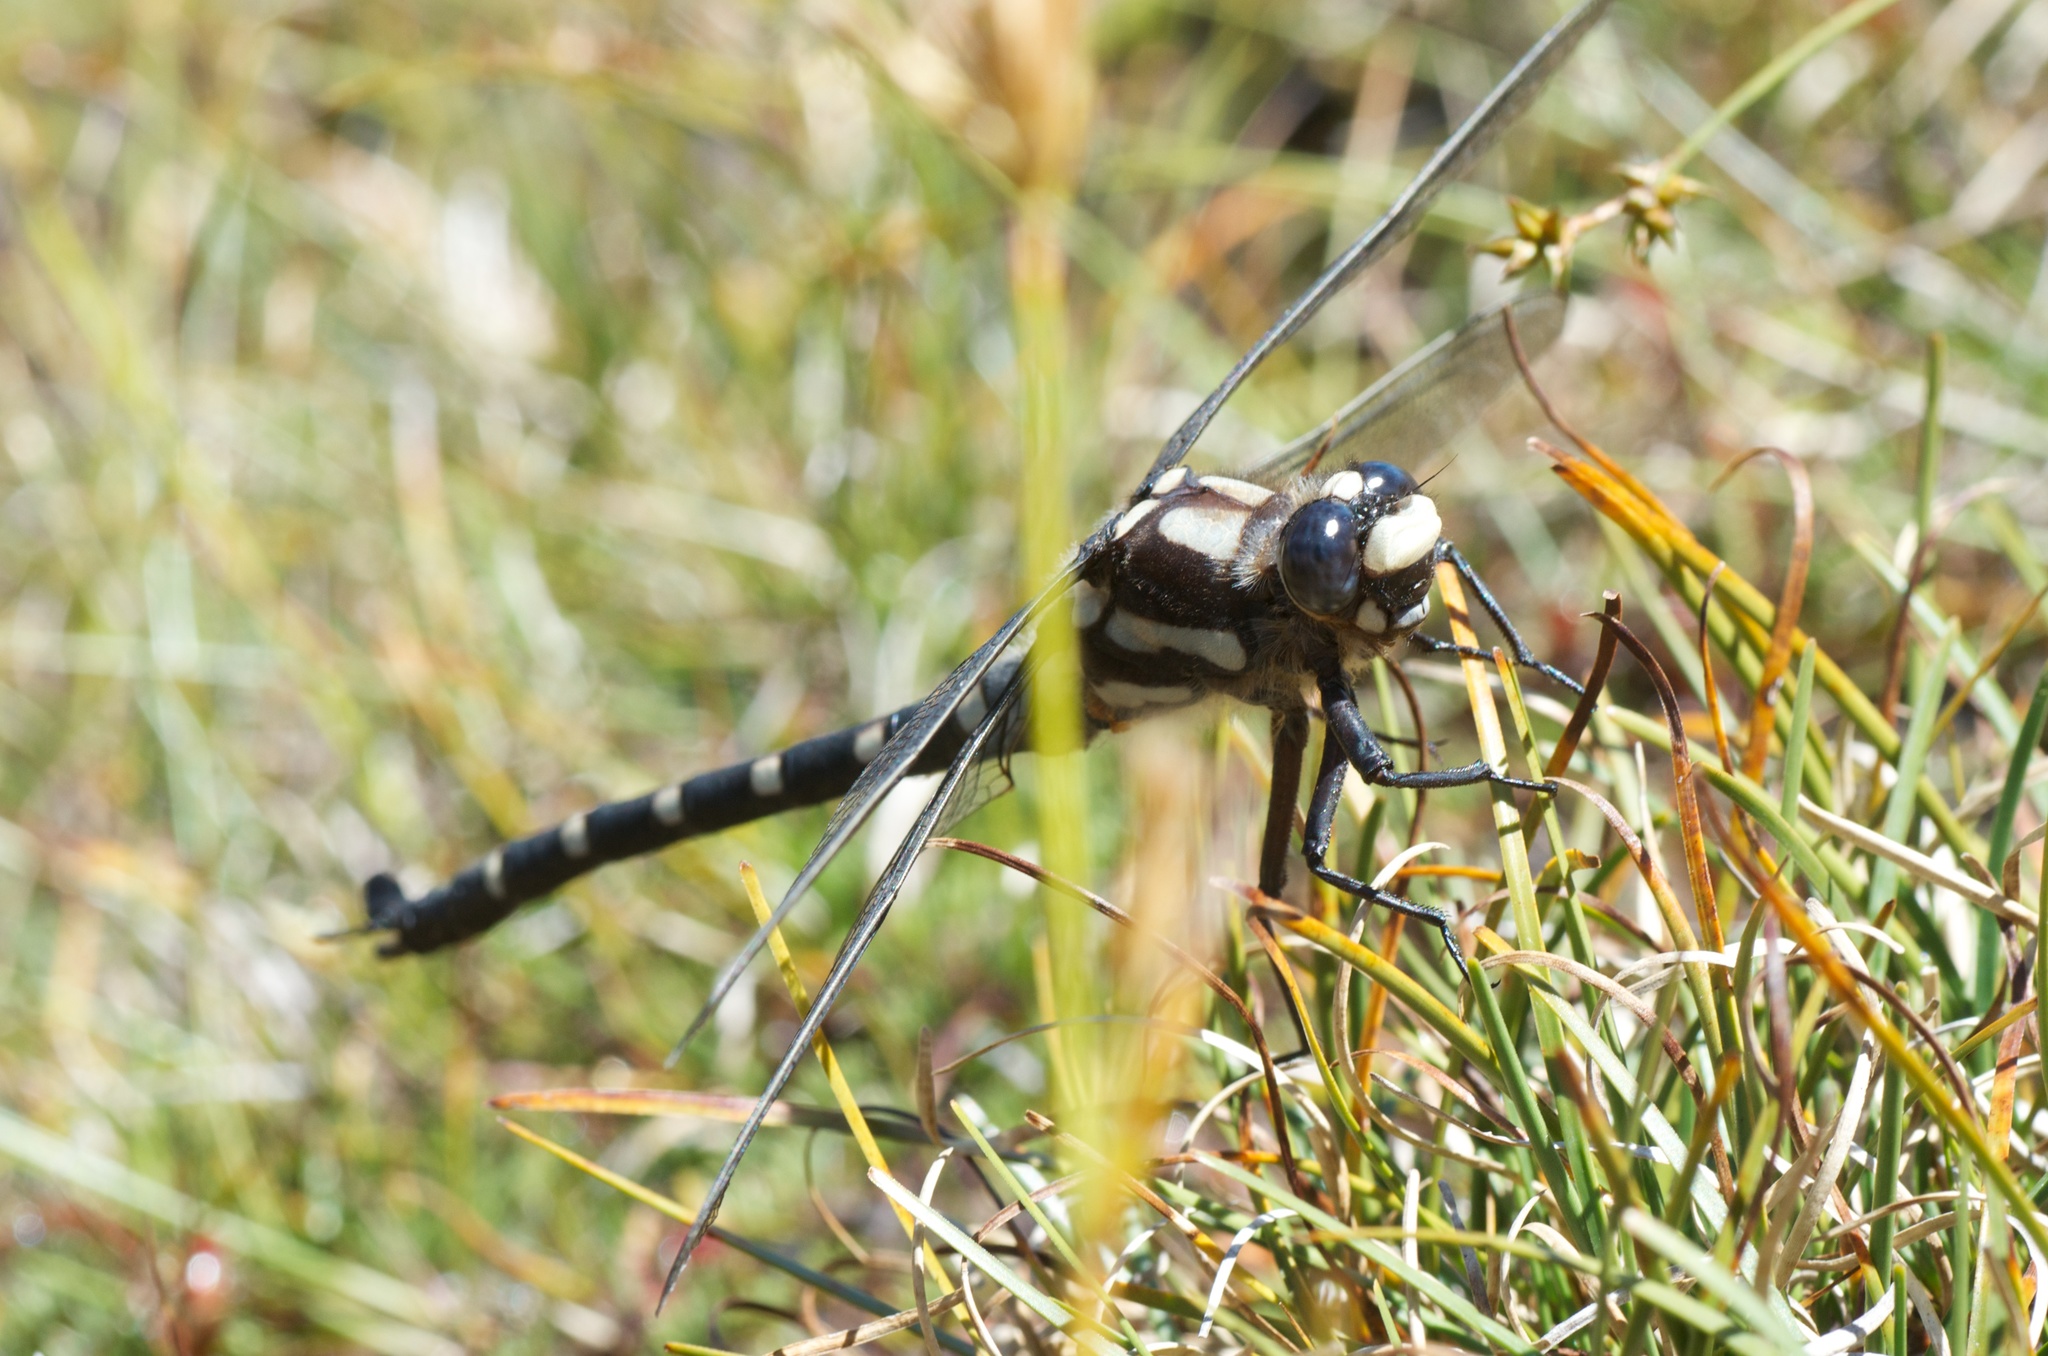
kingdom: Animalia
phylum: Arthropoda
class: Insecta
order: Odonata
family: Petaluridae
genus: Uropetala
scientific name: Uropetala chiltoni
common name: Mountain giant dragonfly
